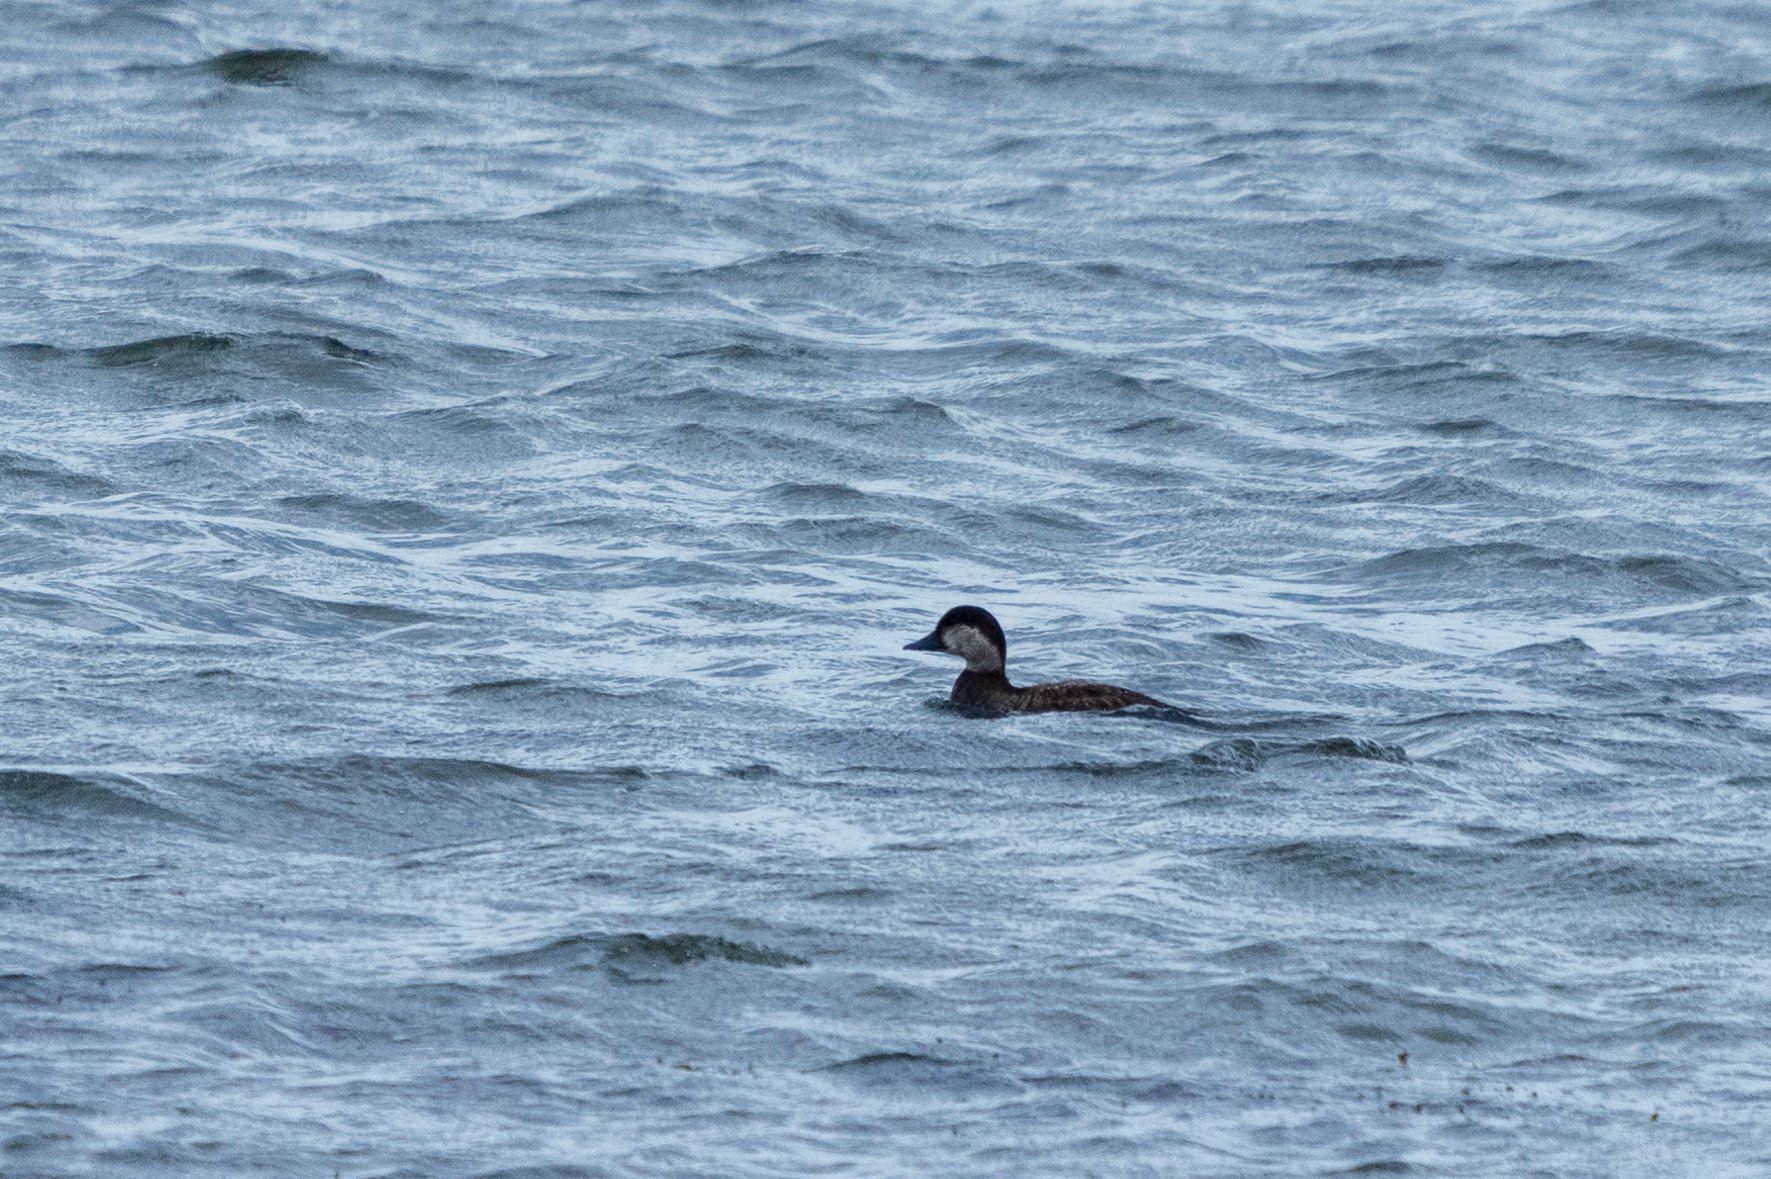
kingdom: Animalia
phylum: Chordata
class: Aves
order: Anseriformes
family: Anatidae
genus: Melanitta
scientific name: Melanitta nigra
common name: Common scoter
